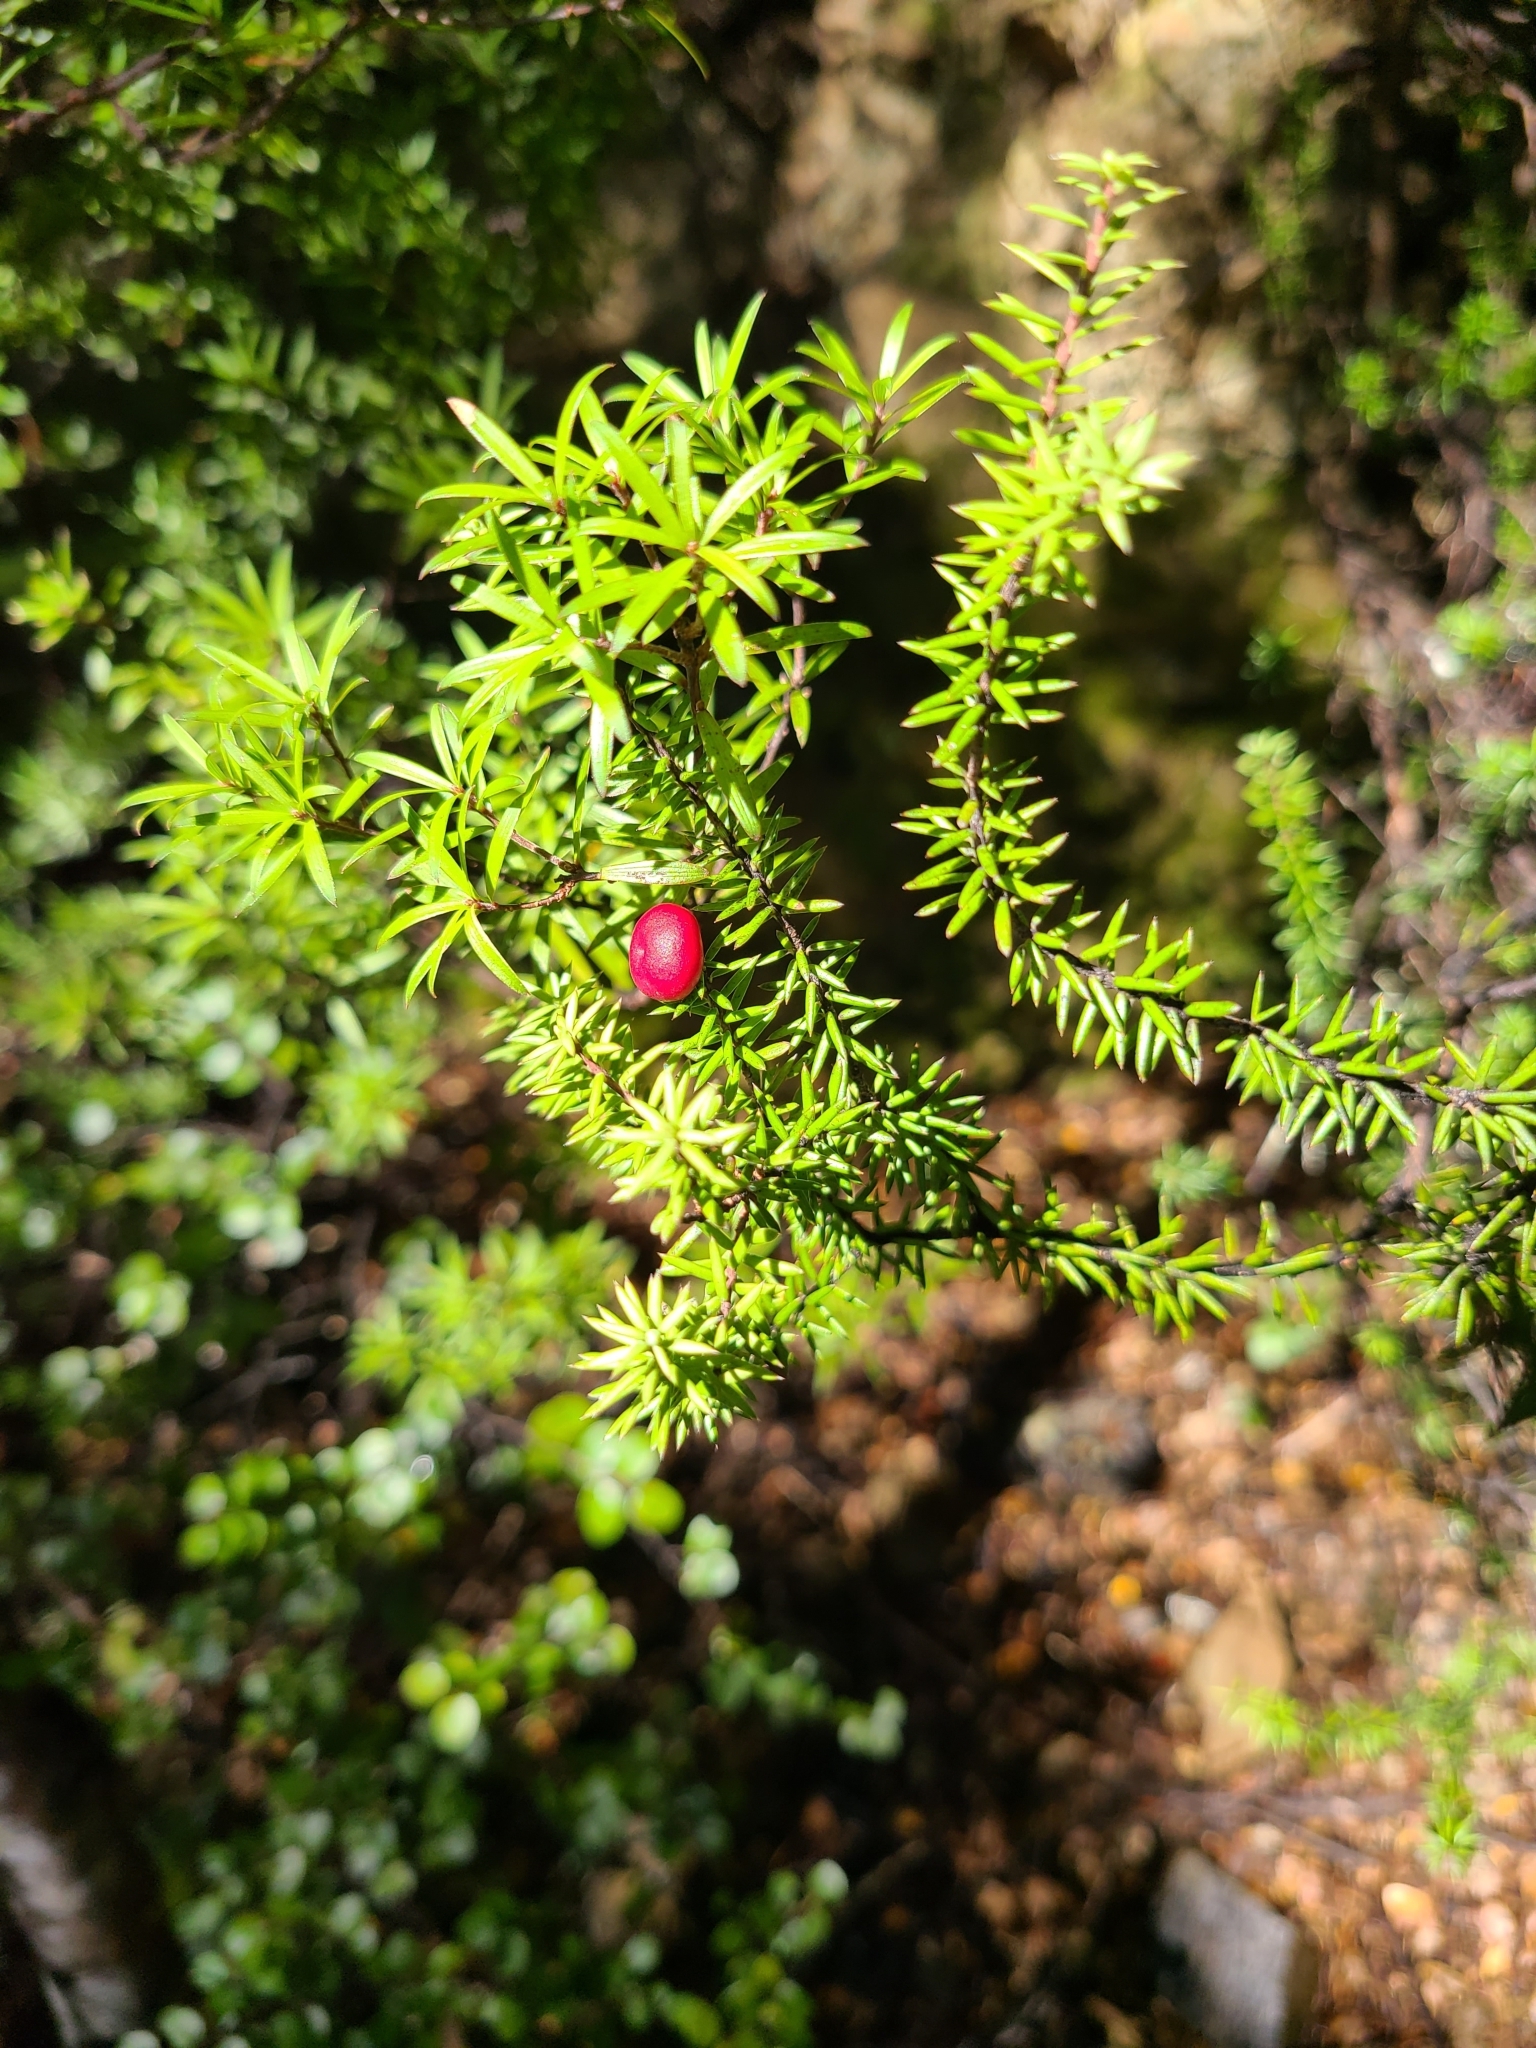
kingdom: Plantae
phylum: Tracheophyta
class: Magnoliopsida
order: Ericales
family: Ericaceae
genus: Leptecophylla
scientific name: Leptecophylla juniperina
